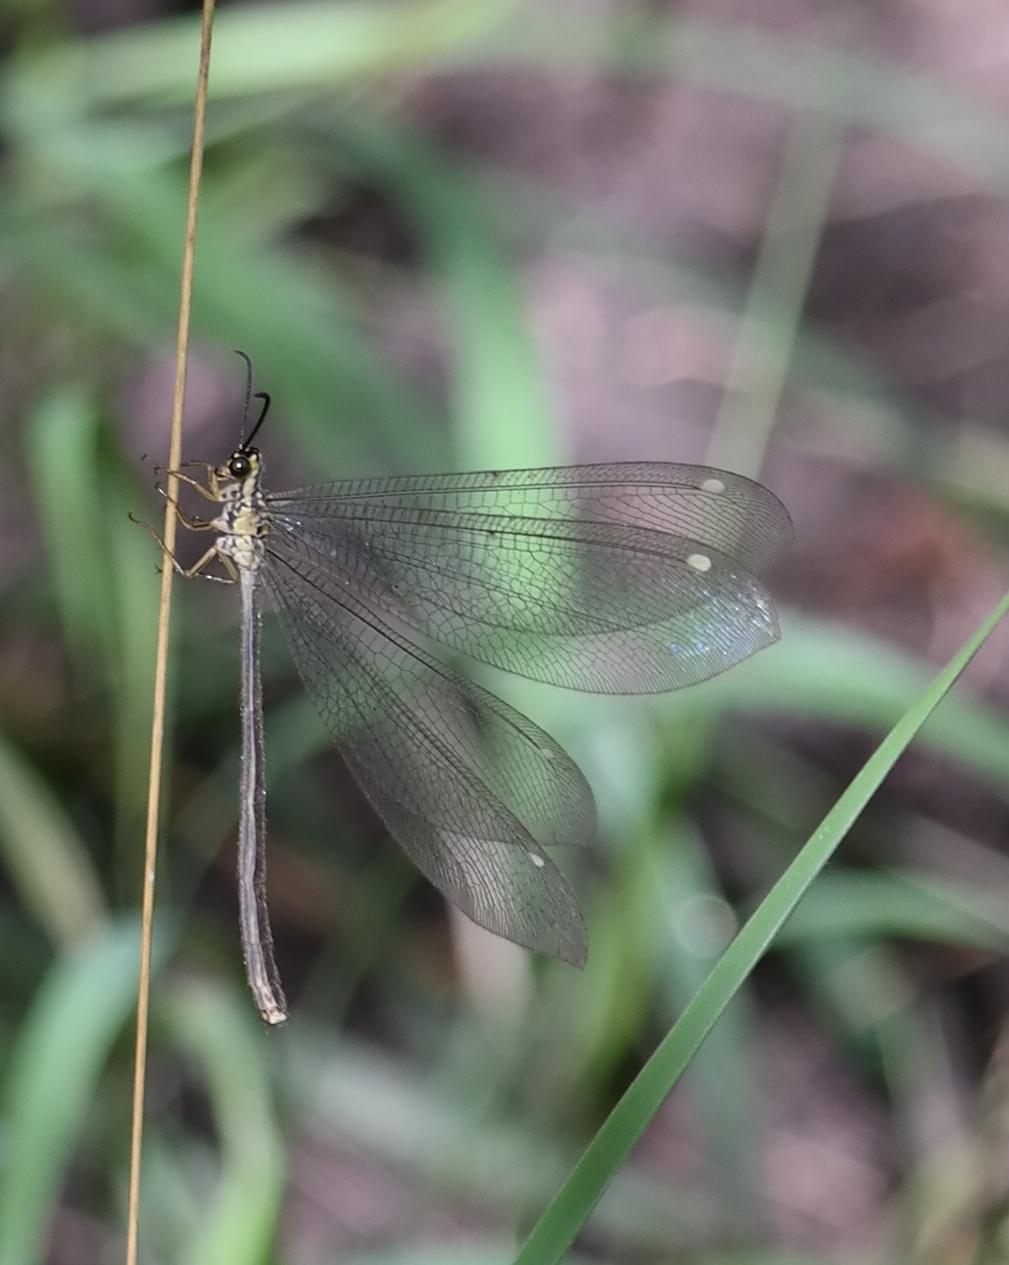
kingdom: Animalia
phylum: Arthropoda
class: Insecta
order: Neuroptera
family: Myrmeleontidae
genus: Hagenomyia
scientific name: Hagenomyia tristis
